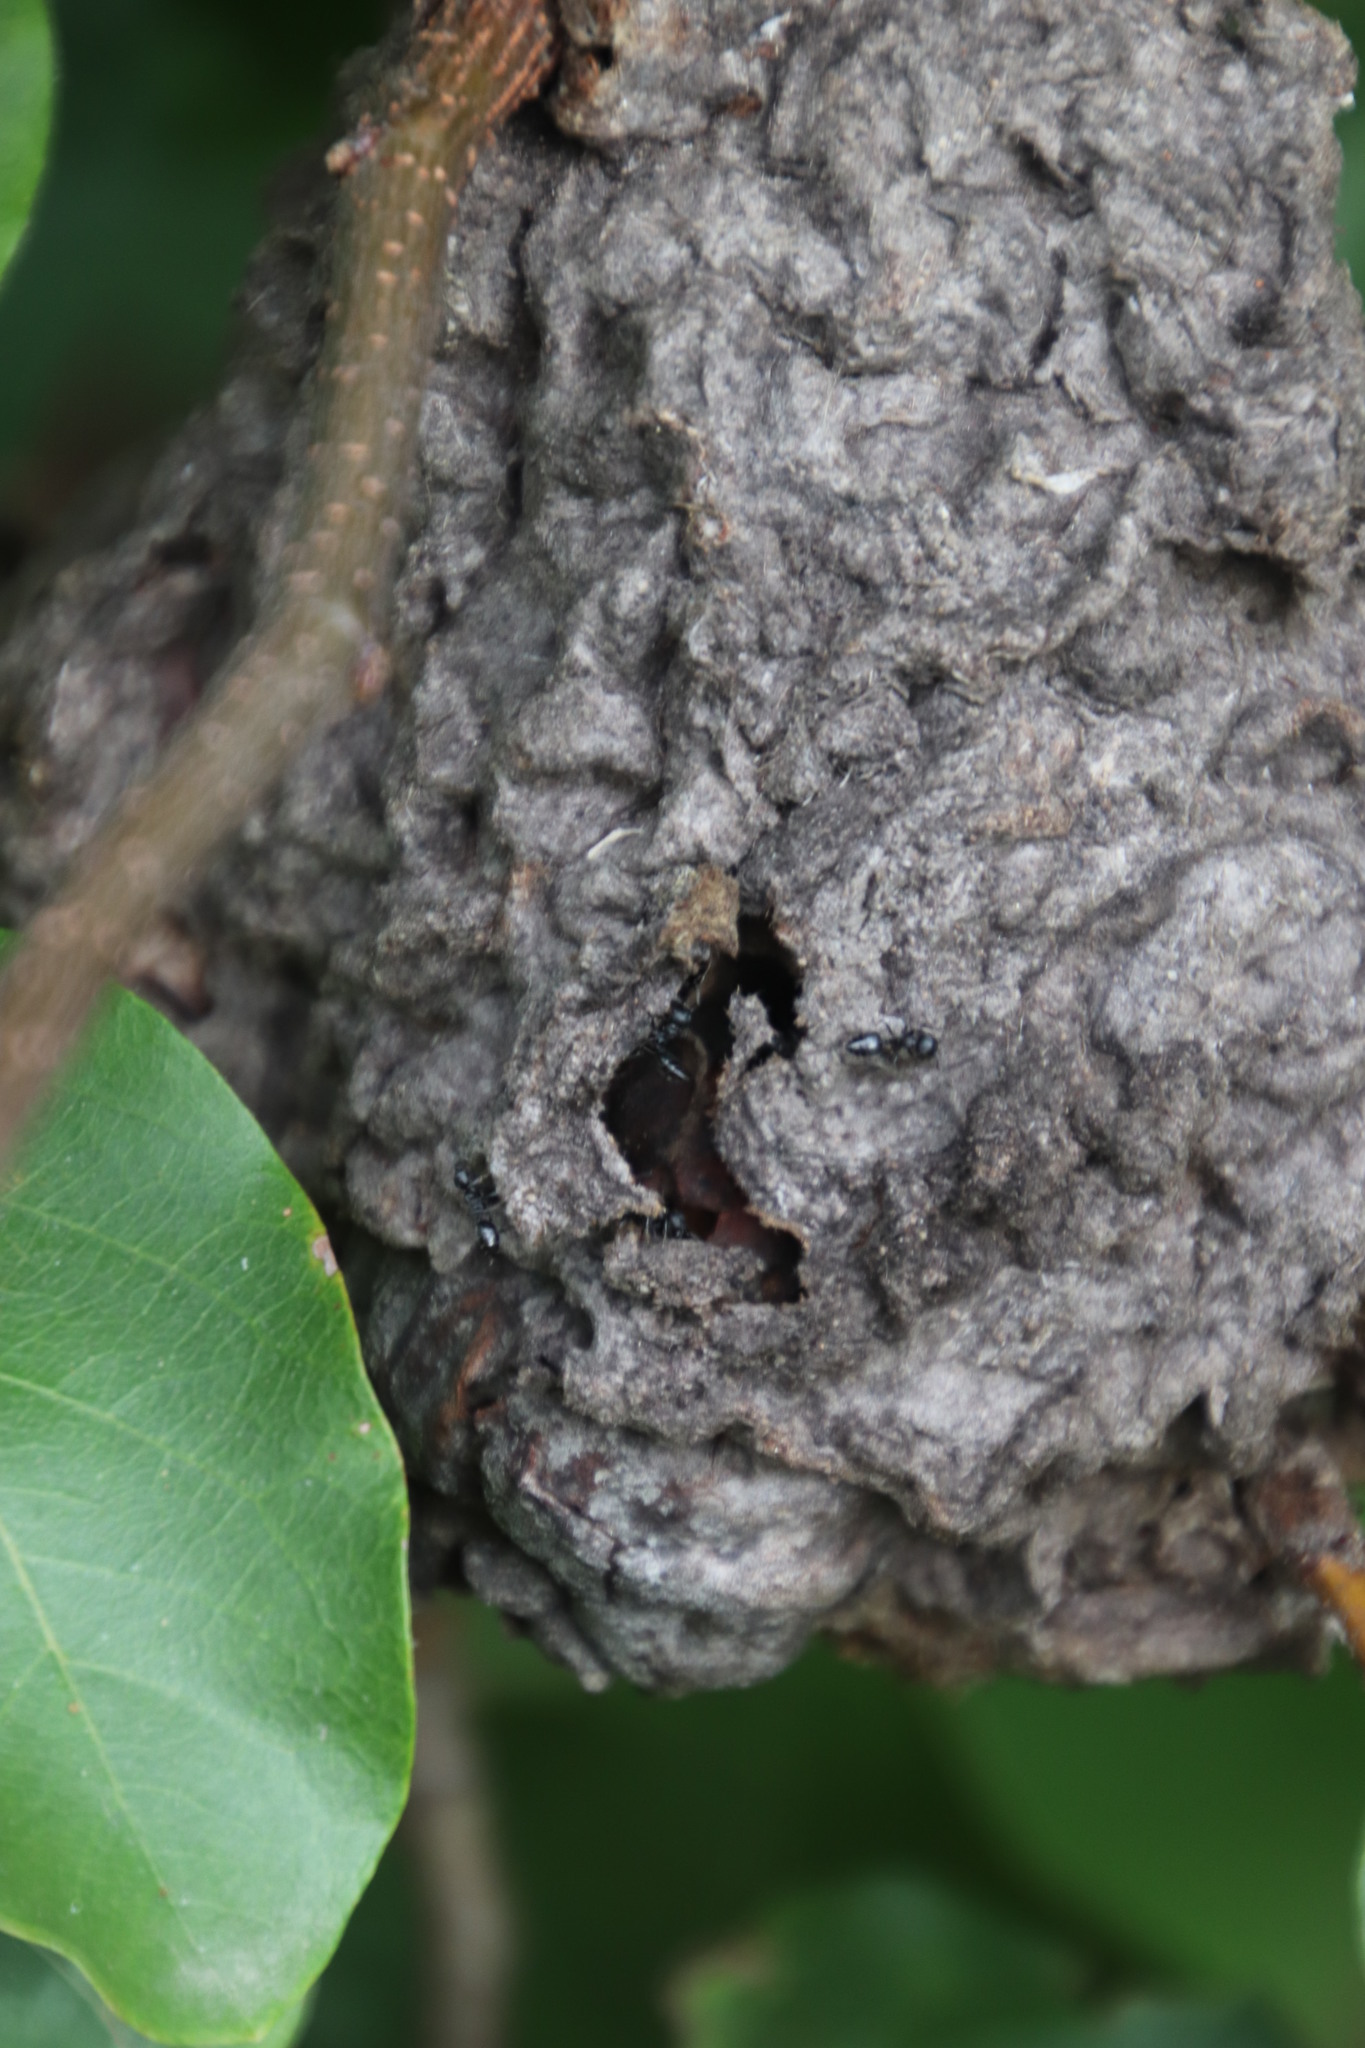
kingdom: Animalia
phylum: Arthropoda
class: Insecta
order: Hymenoptera
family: Formicidae
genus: Crematogaster
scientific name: Crematogaster peringueyi
